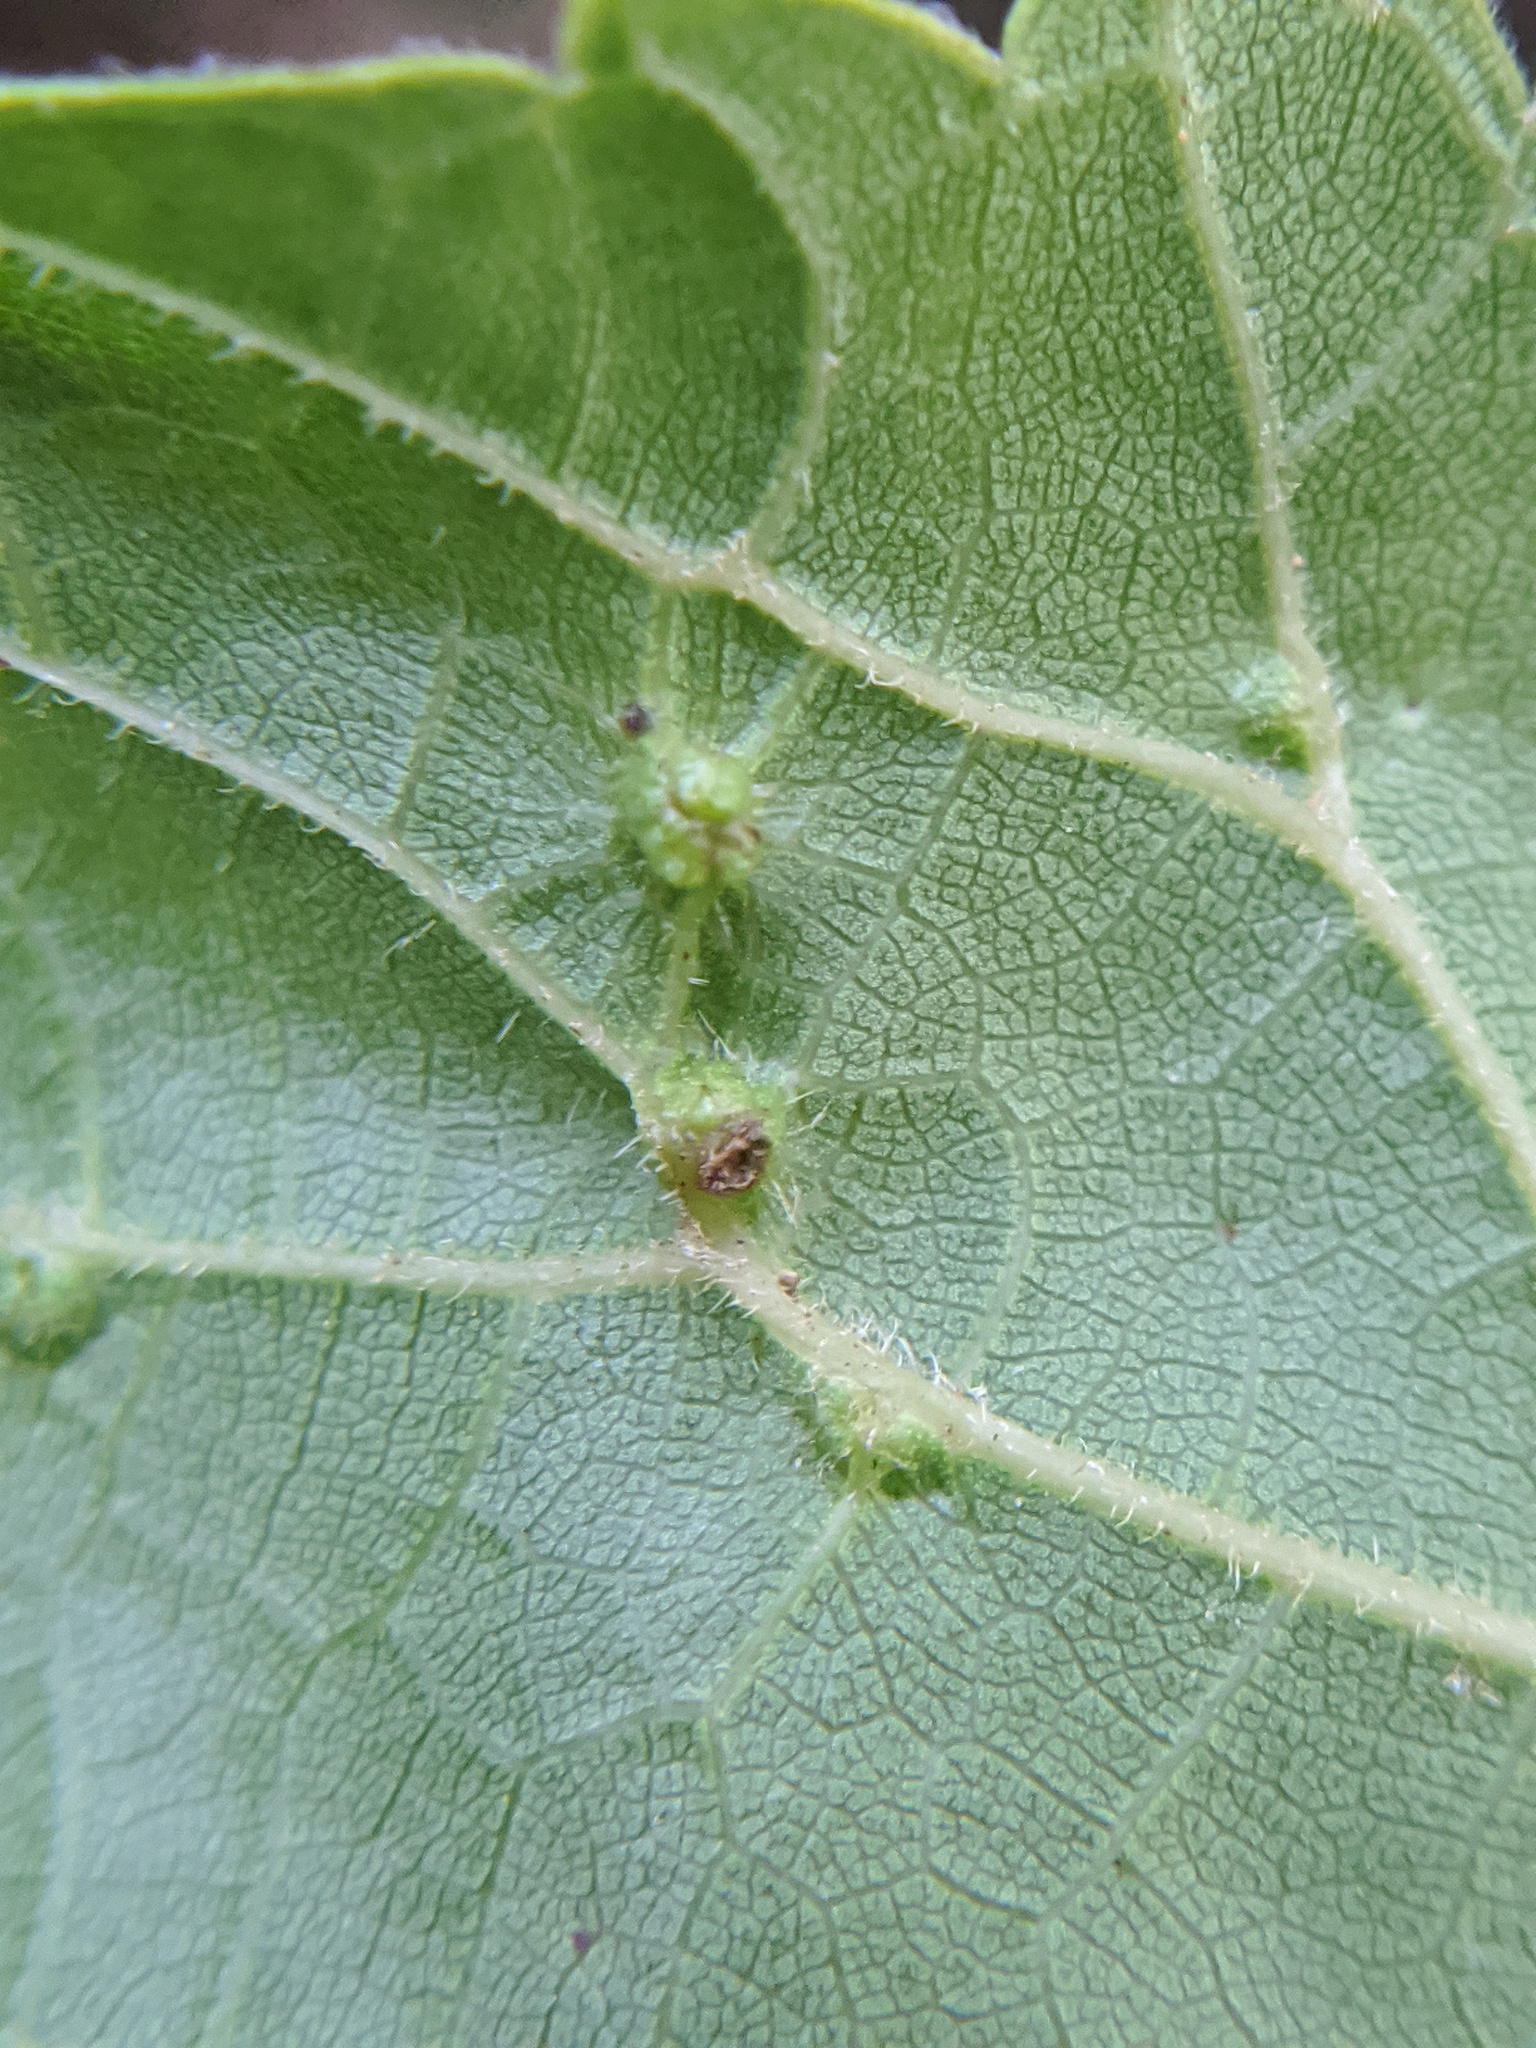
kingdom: Animalia
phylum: Arthropoda
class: Insecta
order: Hemiptera
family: Phylloxeridae
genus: Daktulosphaira
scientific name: Daktulosphaira vitifoliae
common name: Grape phylloxera
